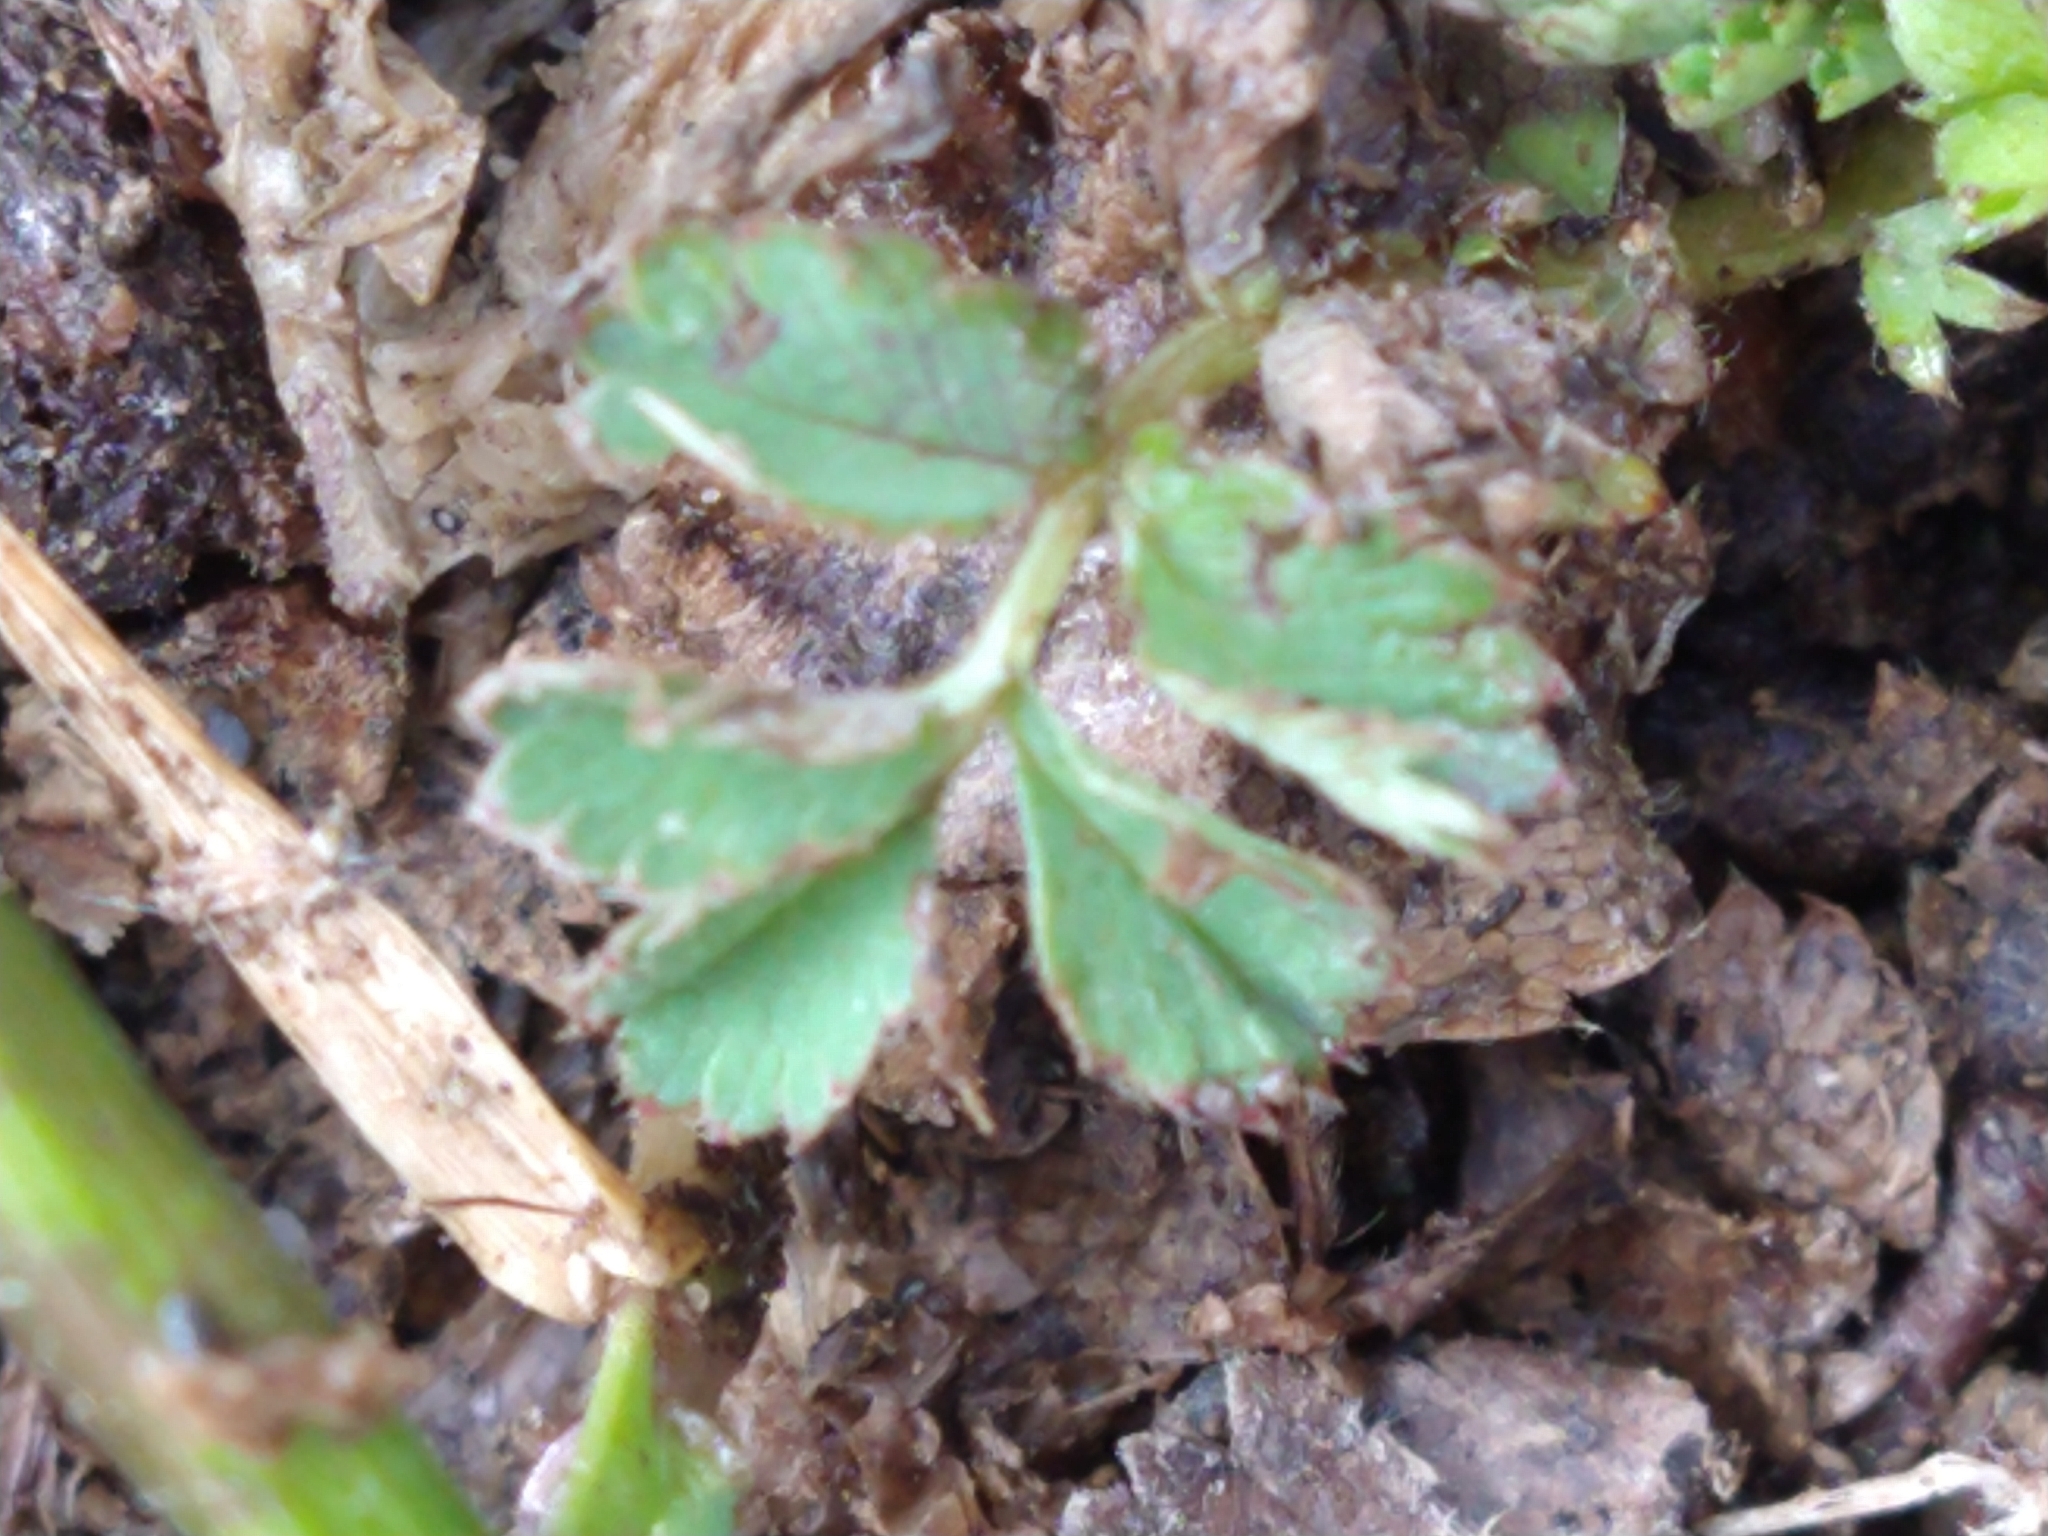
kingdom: Plantae
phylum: Tracheophyta
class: Magnoliopsida
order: Rosales
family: Rosaceae
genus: Acaena
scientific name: Acaena magellanica
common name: New zealand burr
